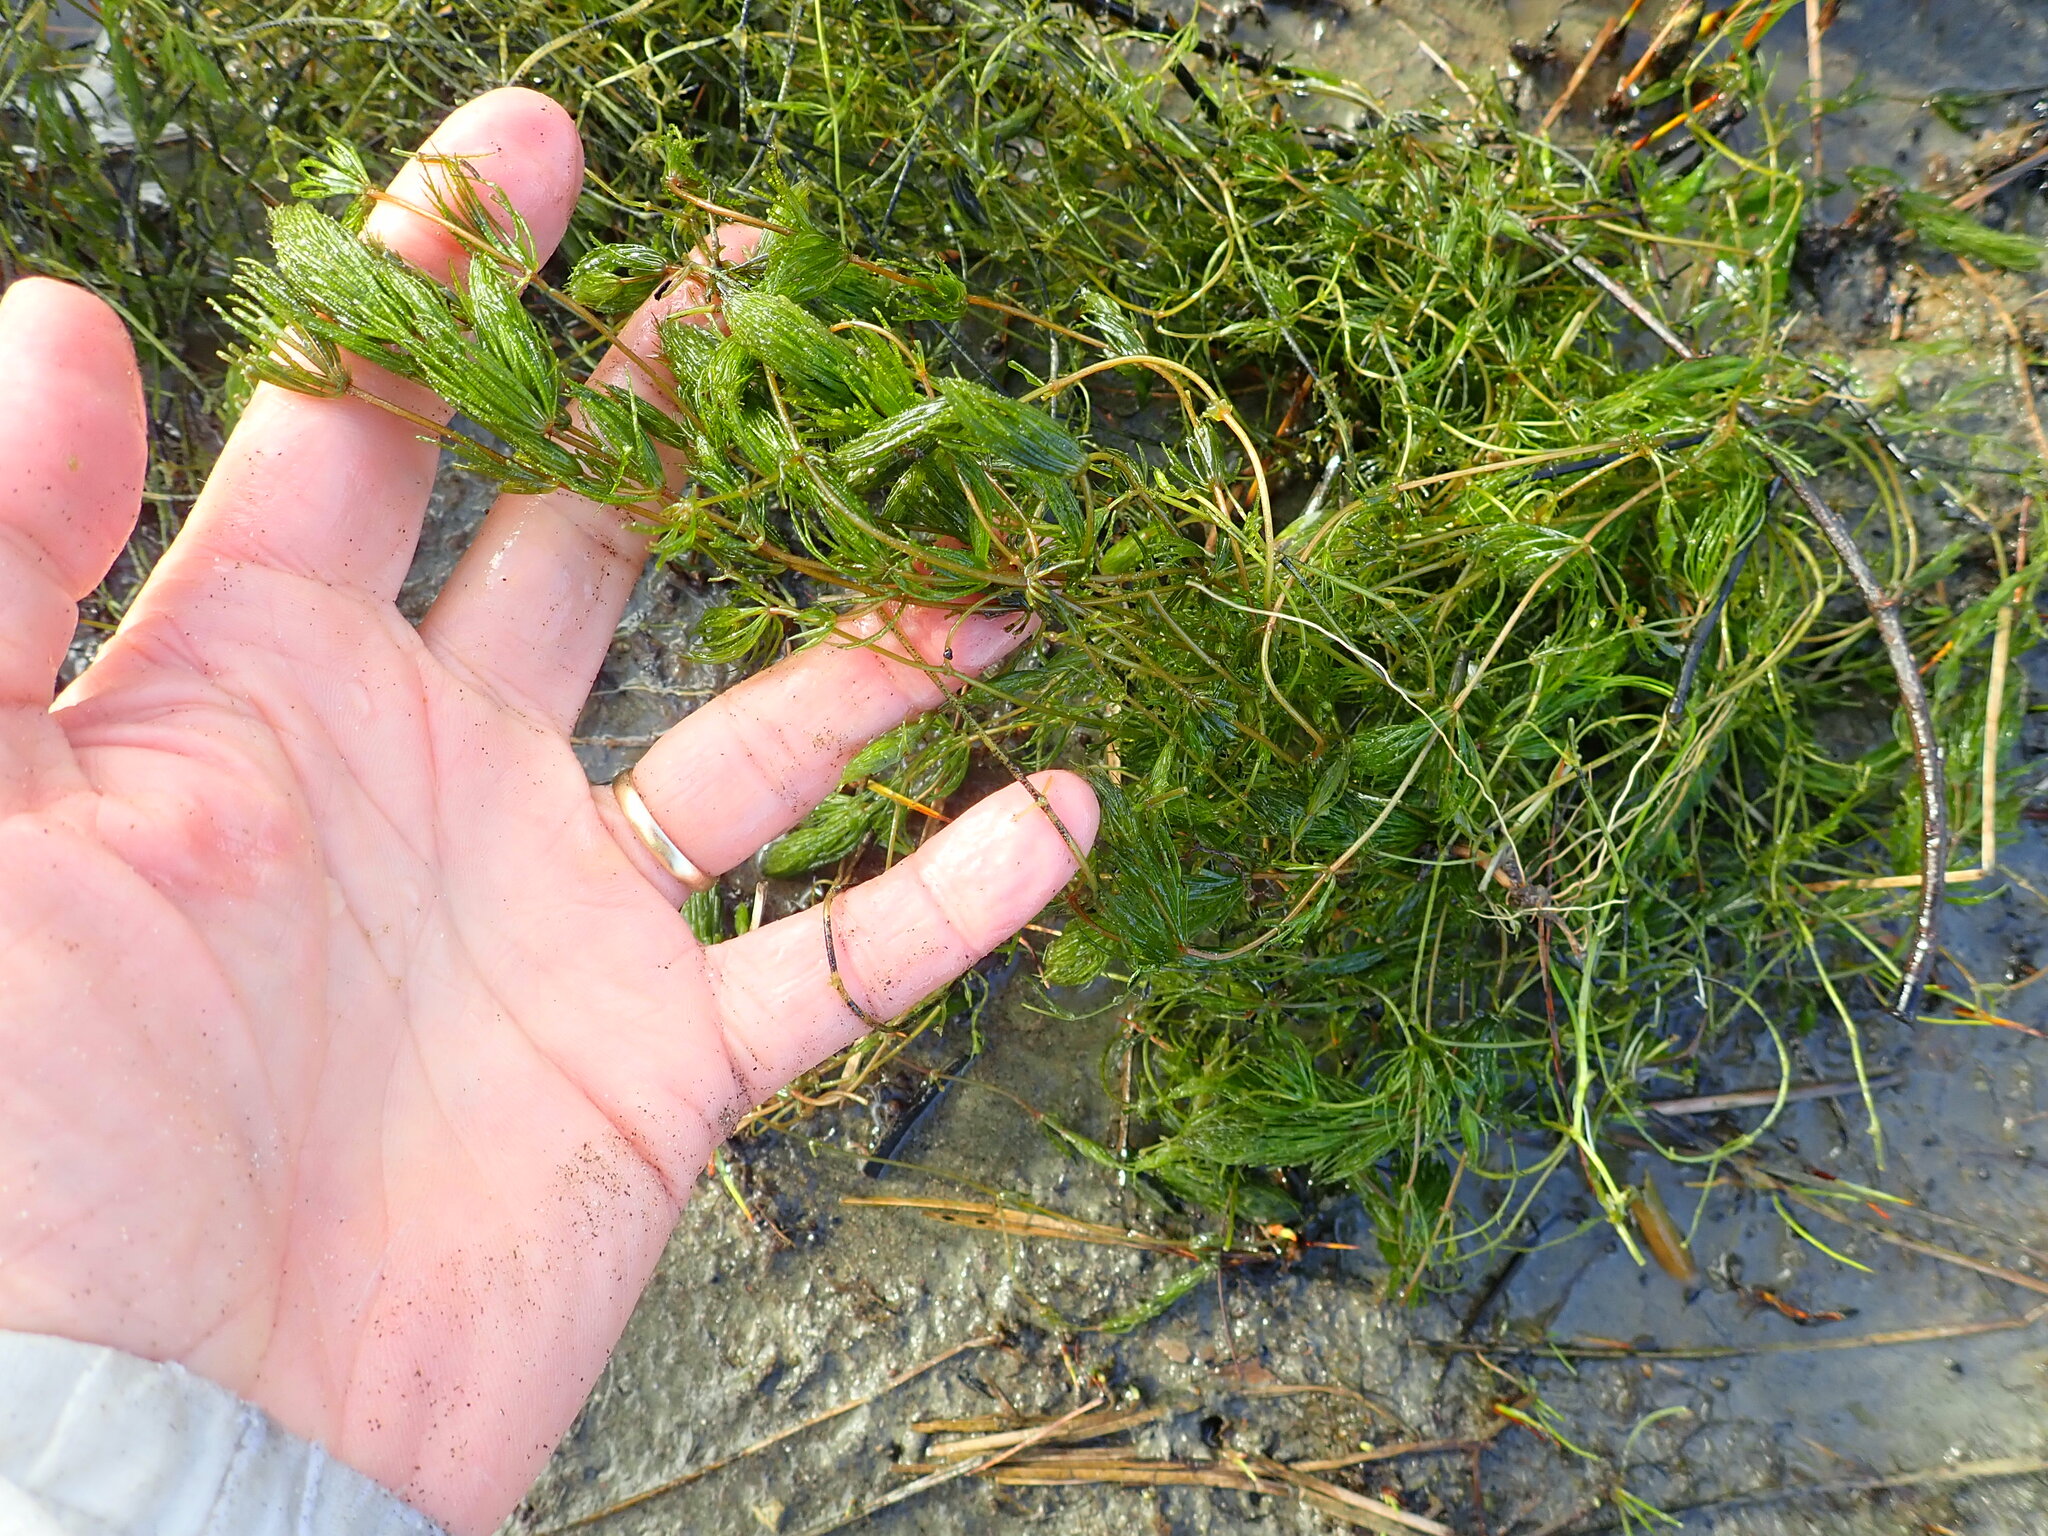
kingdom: Plantae
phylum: Tracheophyta
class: Magnoliopsida
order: Ceratophyllales
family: Ceratophyllaceae
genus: Ceratophyllum
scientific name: Ceratophyllum demersum
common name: Rigid hornwort
